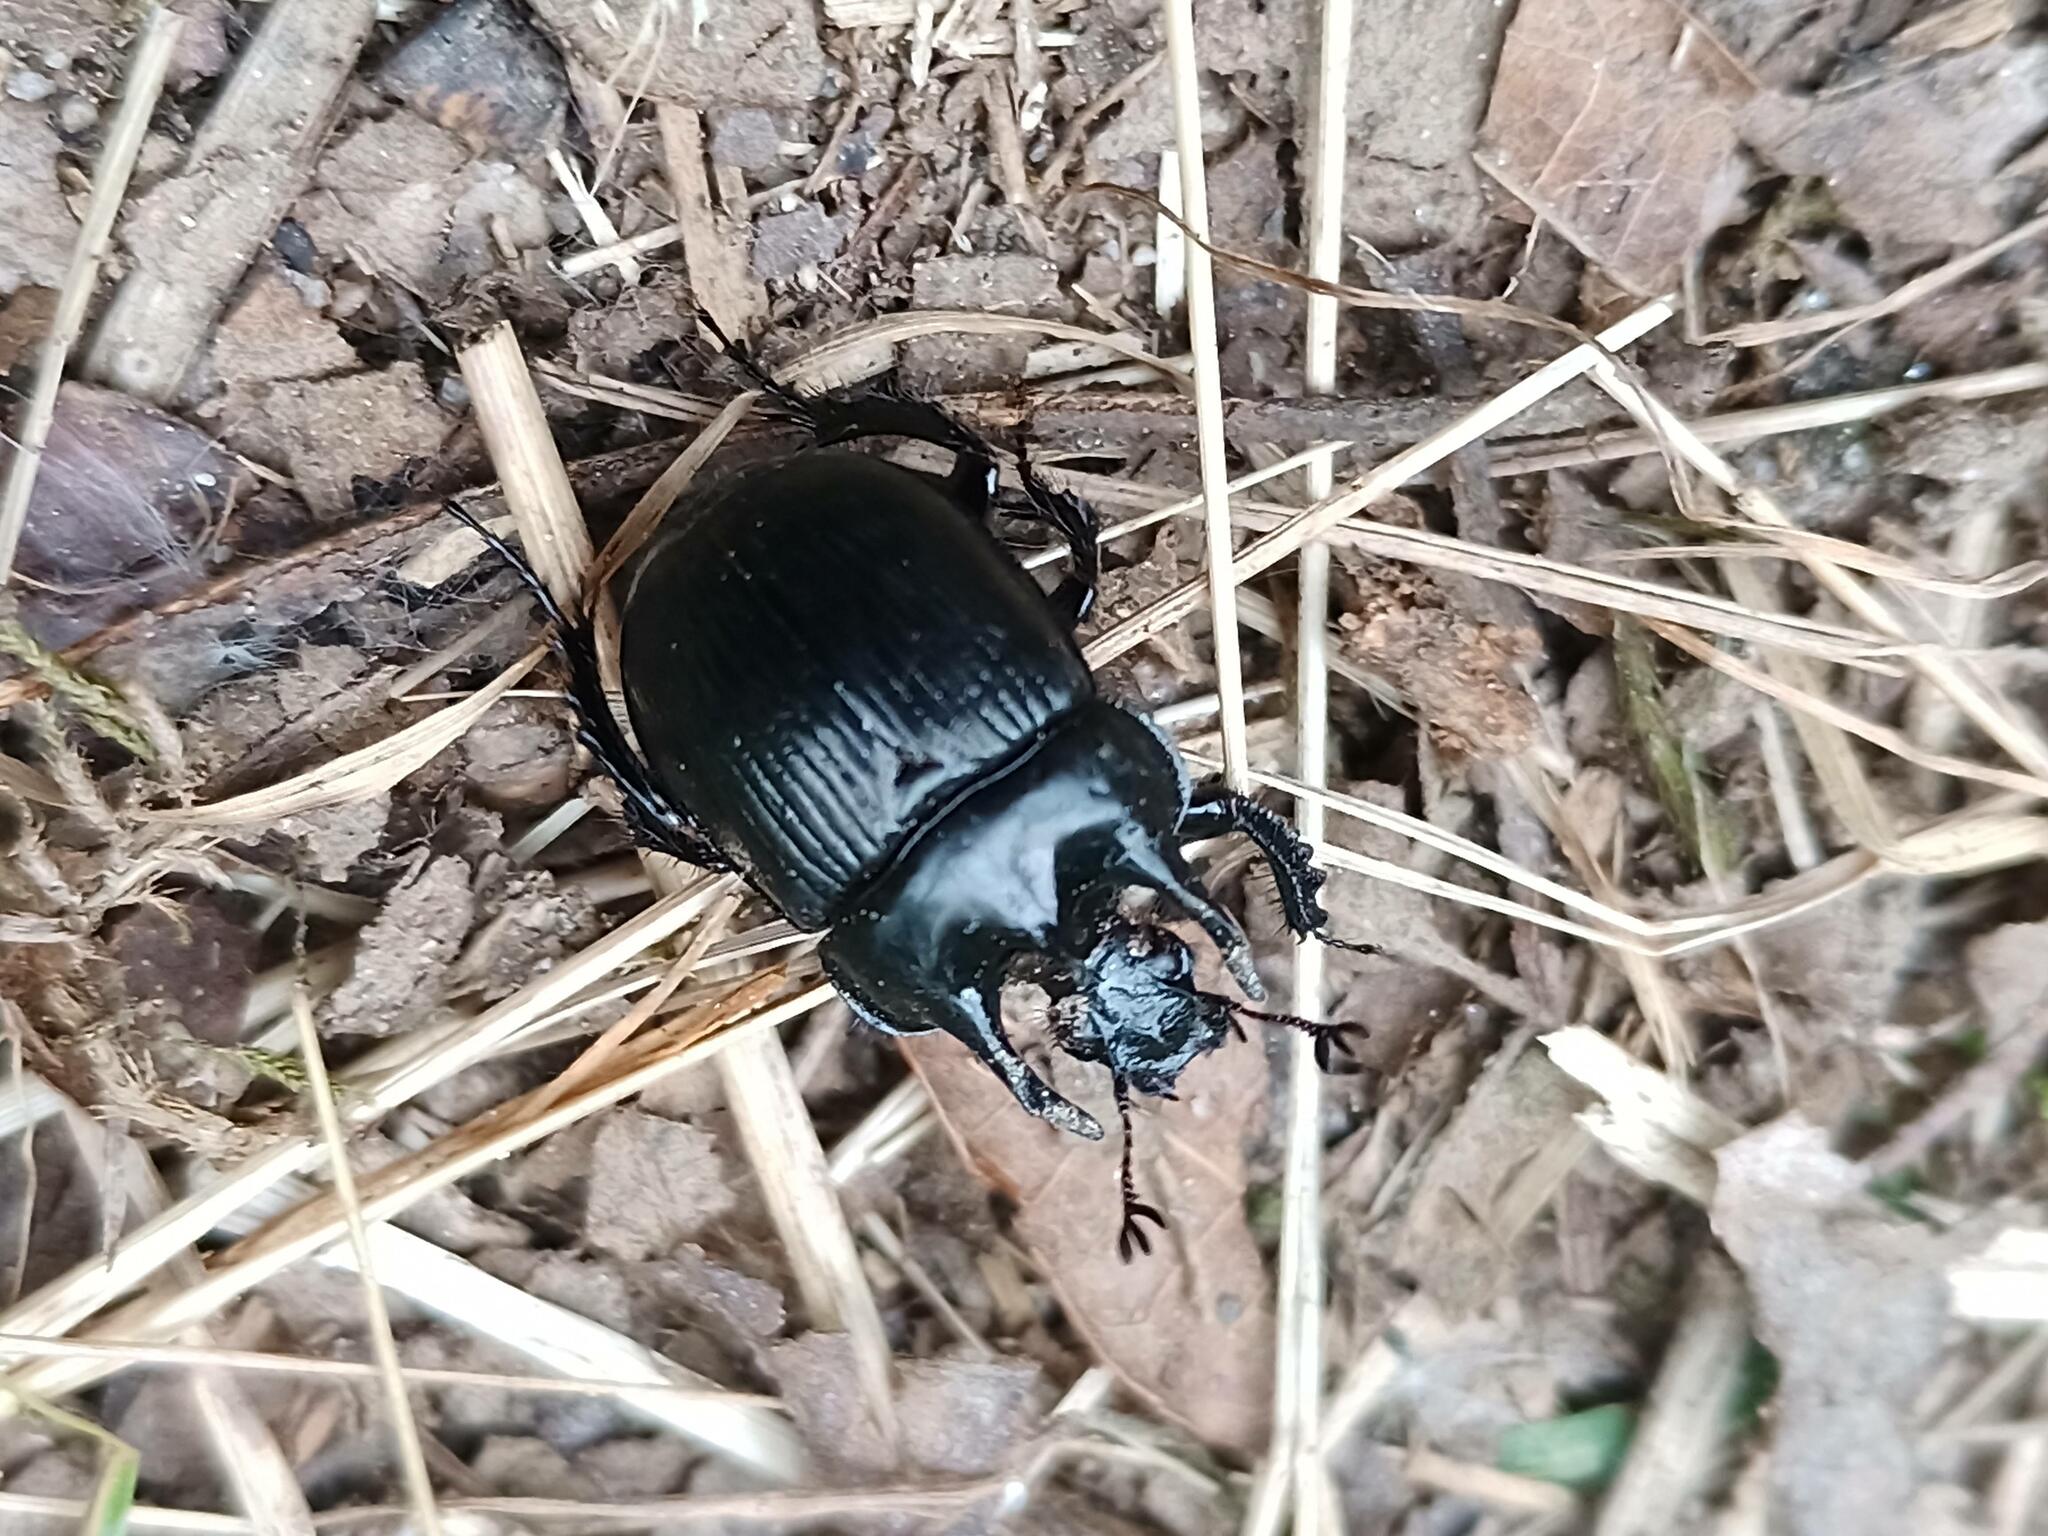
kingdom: Animalia
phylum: Arthropoda
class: Insecta
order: Coleoptera
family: Geotrupidae
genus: Typhaeus
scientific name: Typhaeus typhoeus
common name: Minotaur beetle
